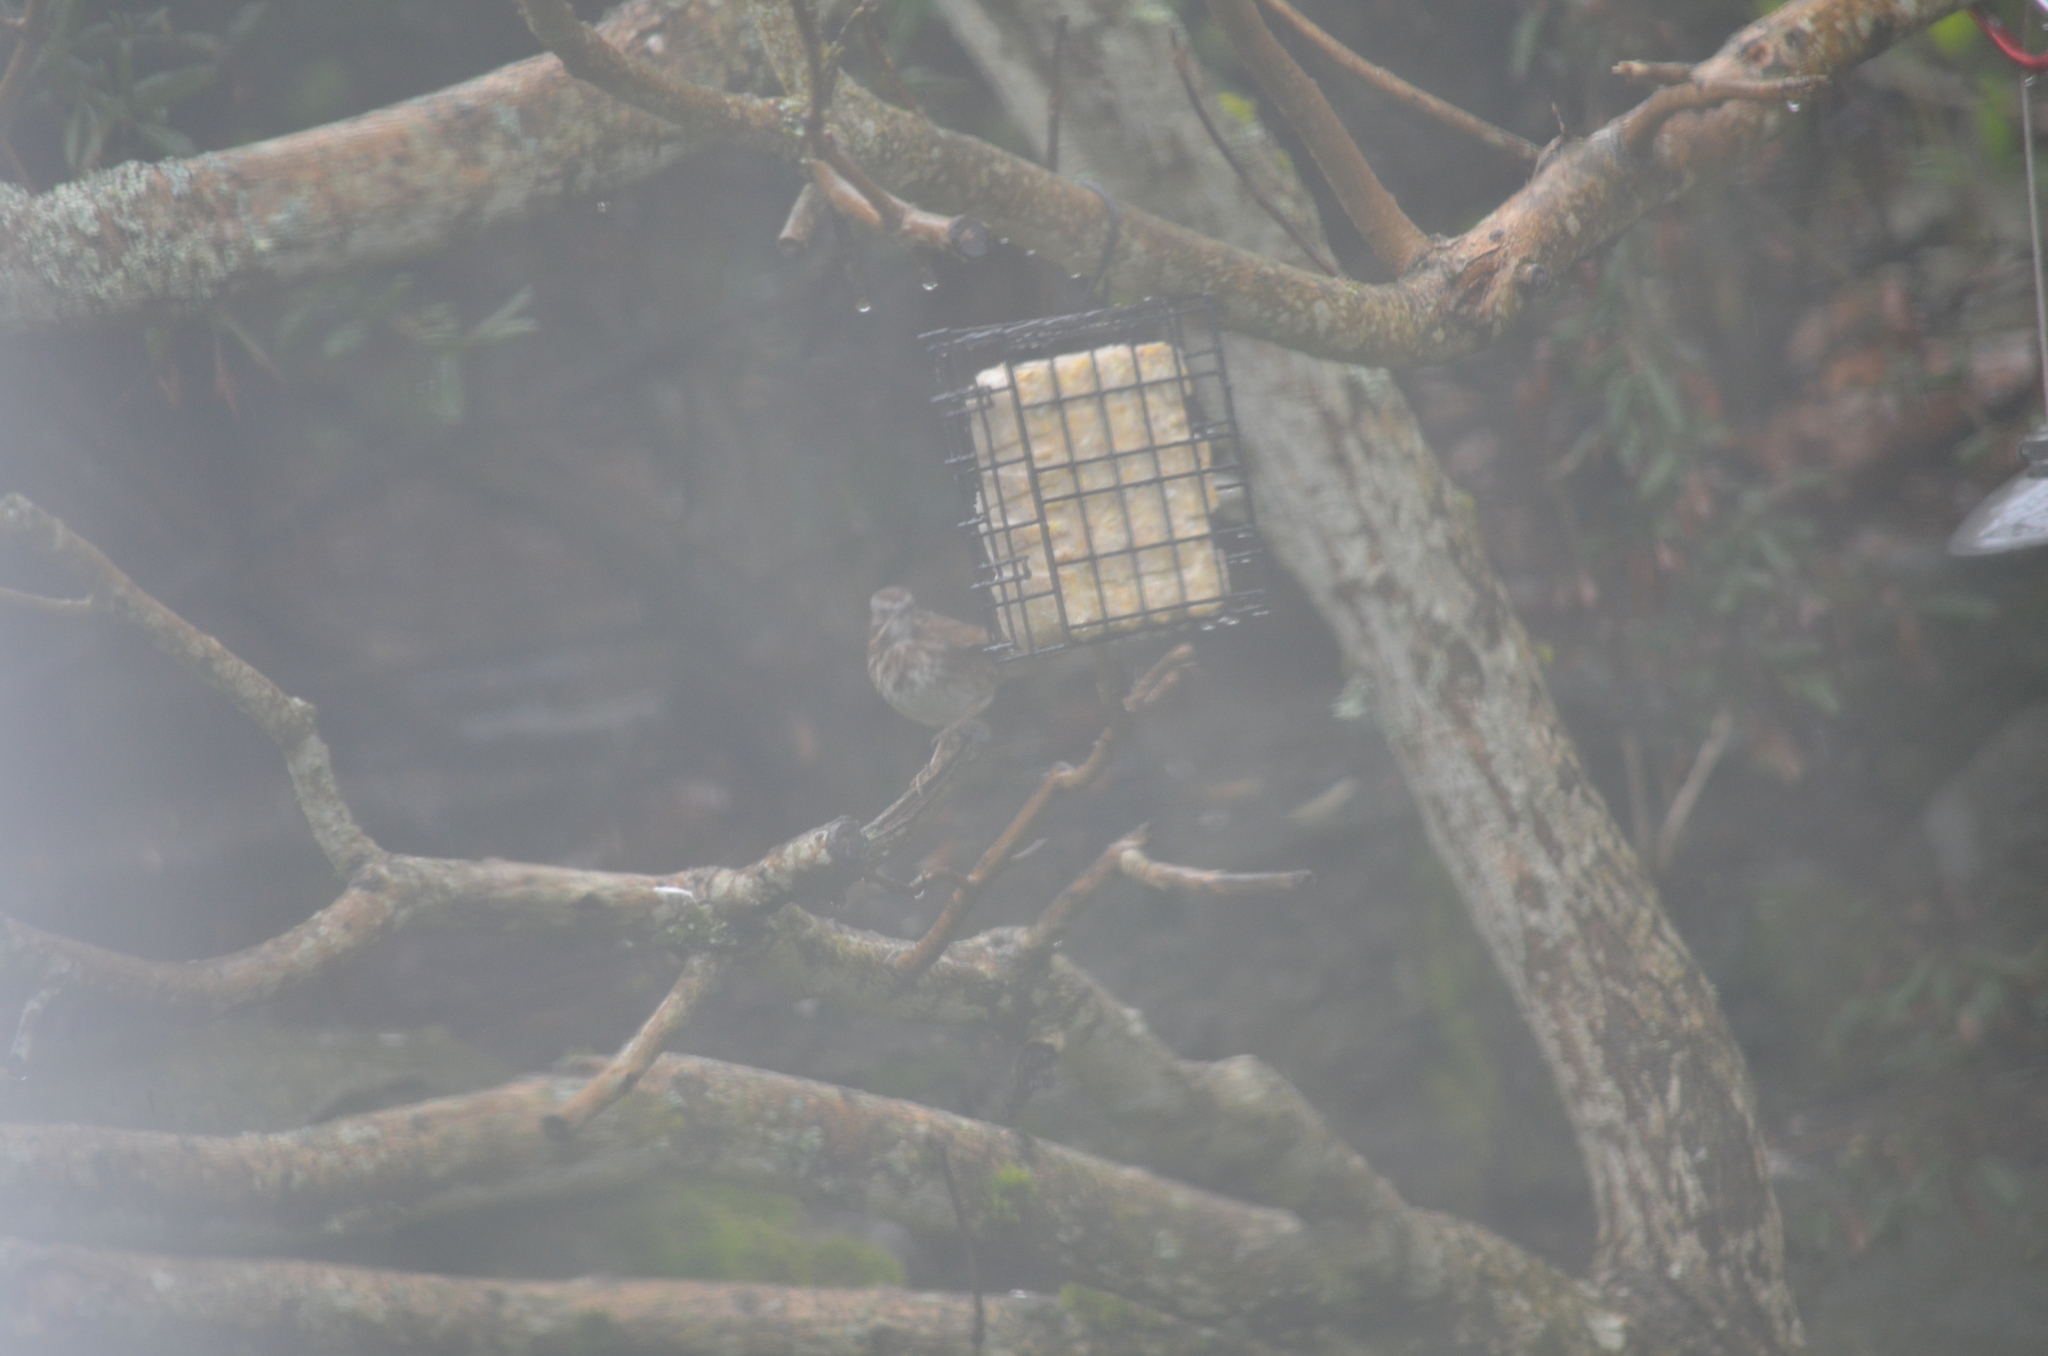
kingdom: Animalia
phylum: Chordata
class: Aves
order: Passeriformes
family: Passerellidae
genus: Melospiza
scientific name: Melospiza melodia
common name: Song sparrow
